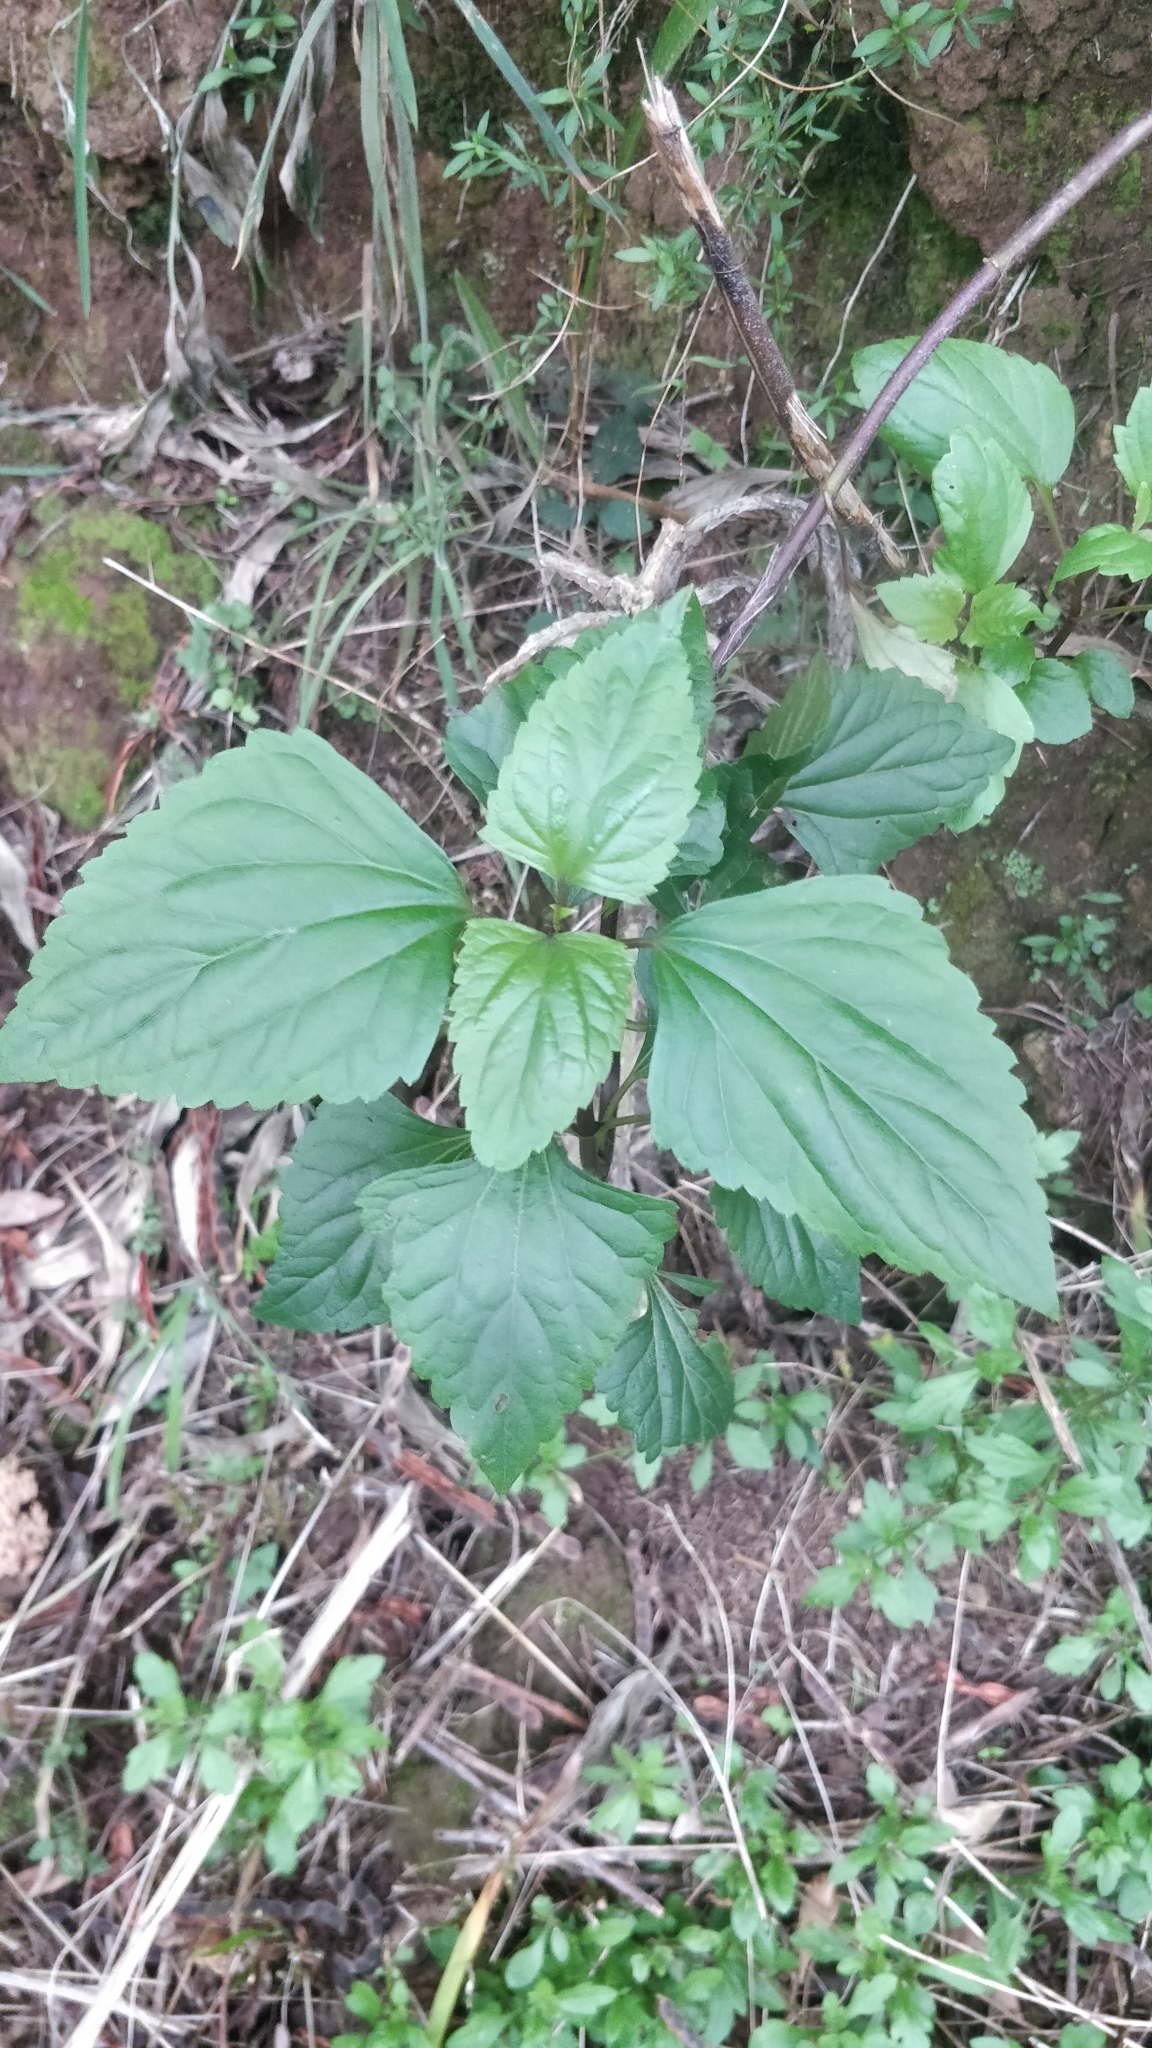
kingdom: Plantae
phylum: Tracheophyta
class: Magnoliopsida
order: Asterales
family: Asteraceae
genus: Ageratina
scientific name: Ageratina adenophora
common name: Sticky snakeroot
